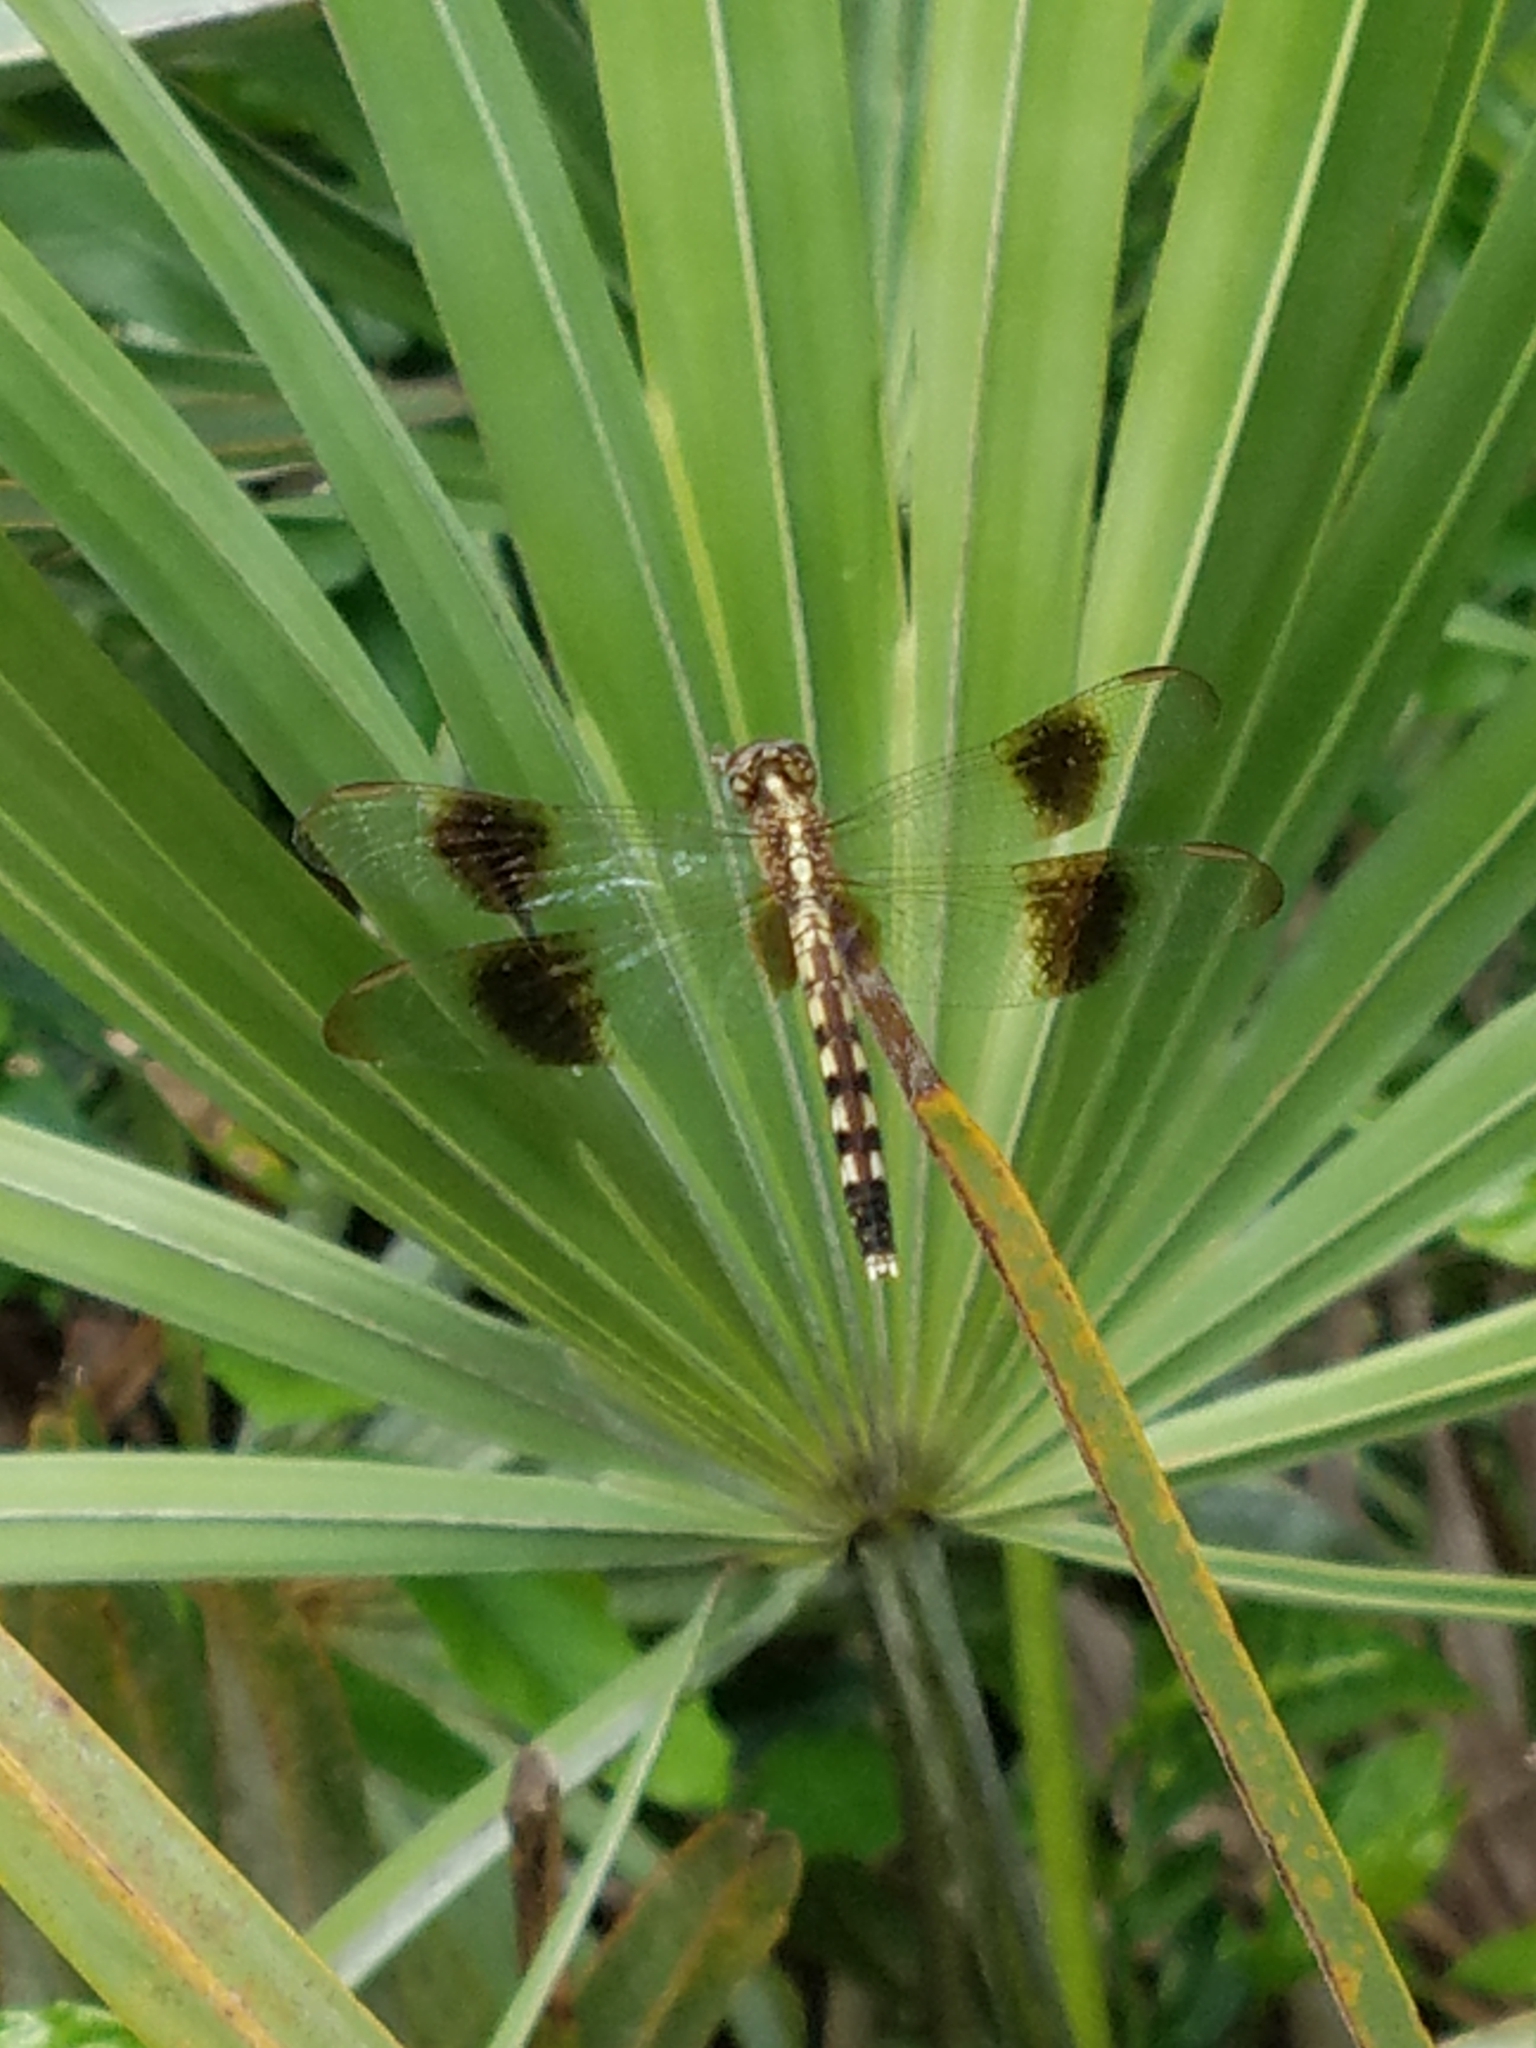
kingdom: Animalia
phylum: Arthropoda
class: Insecta
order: Odonata
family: Libellulidae
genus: Erythrodiplax
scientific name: Erythrodiplax umbrata
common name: Band-winged dragonlet
